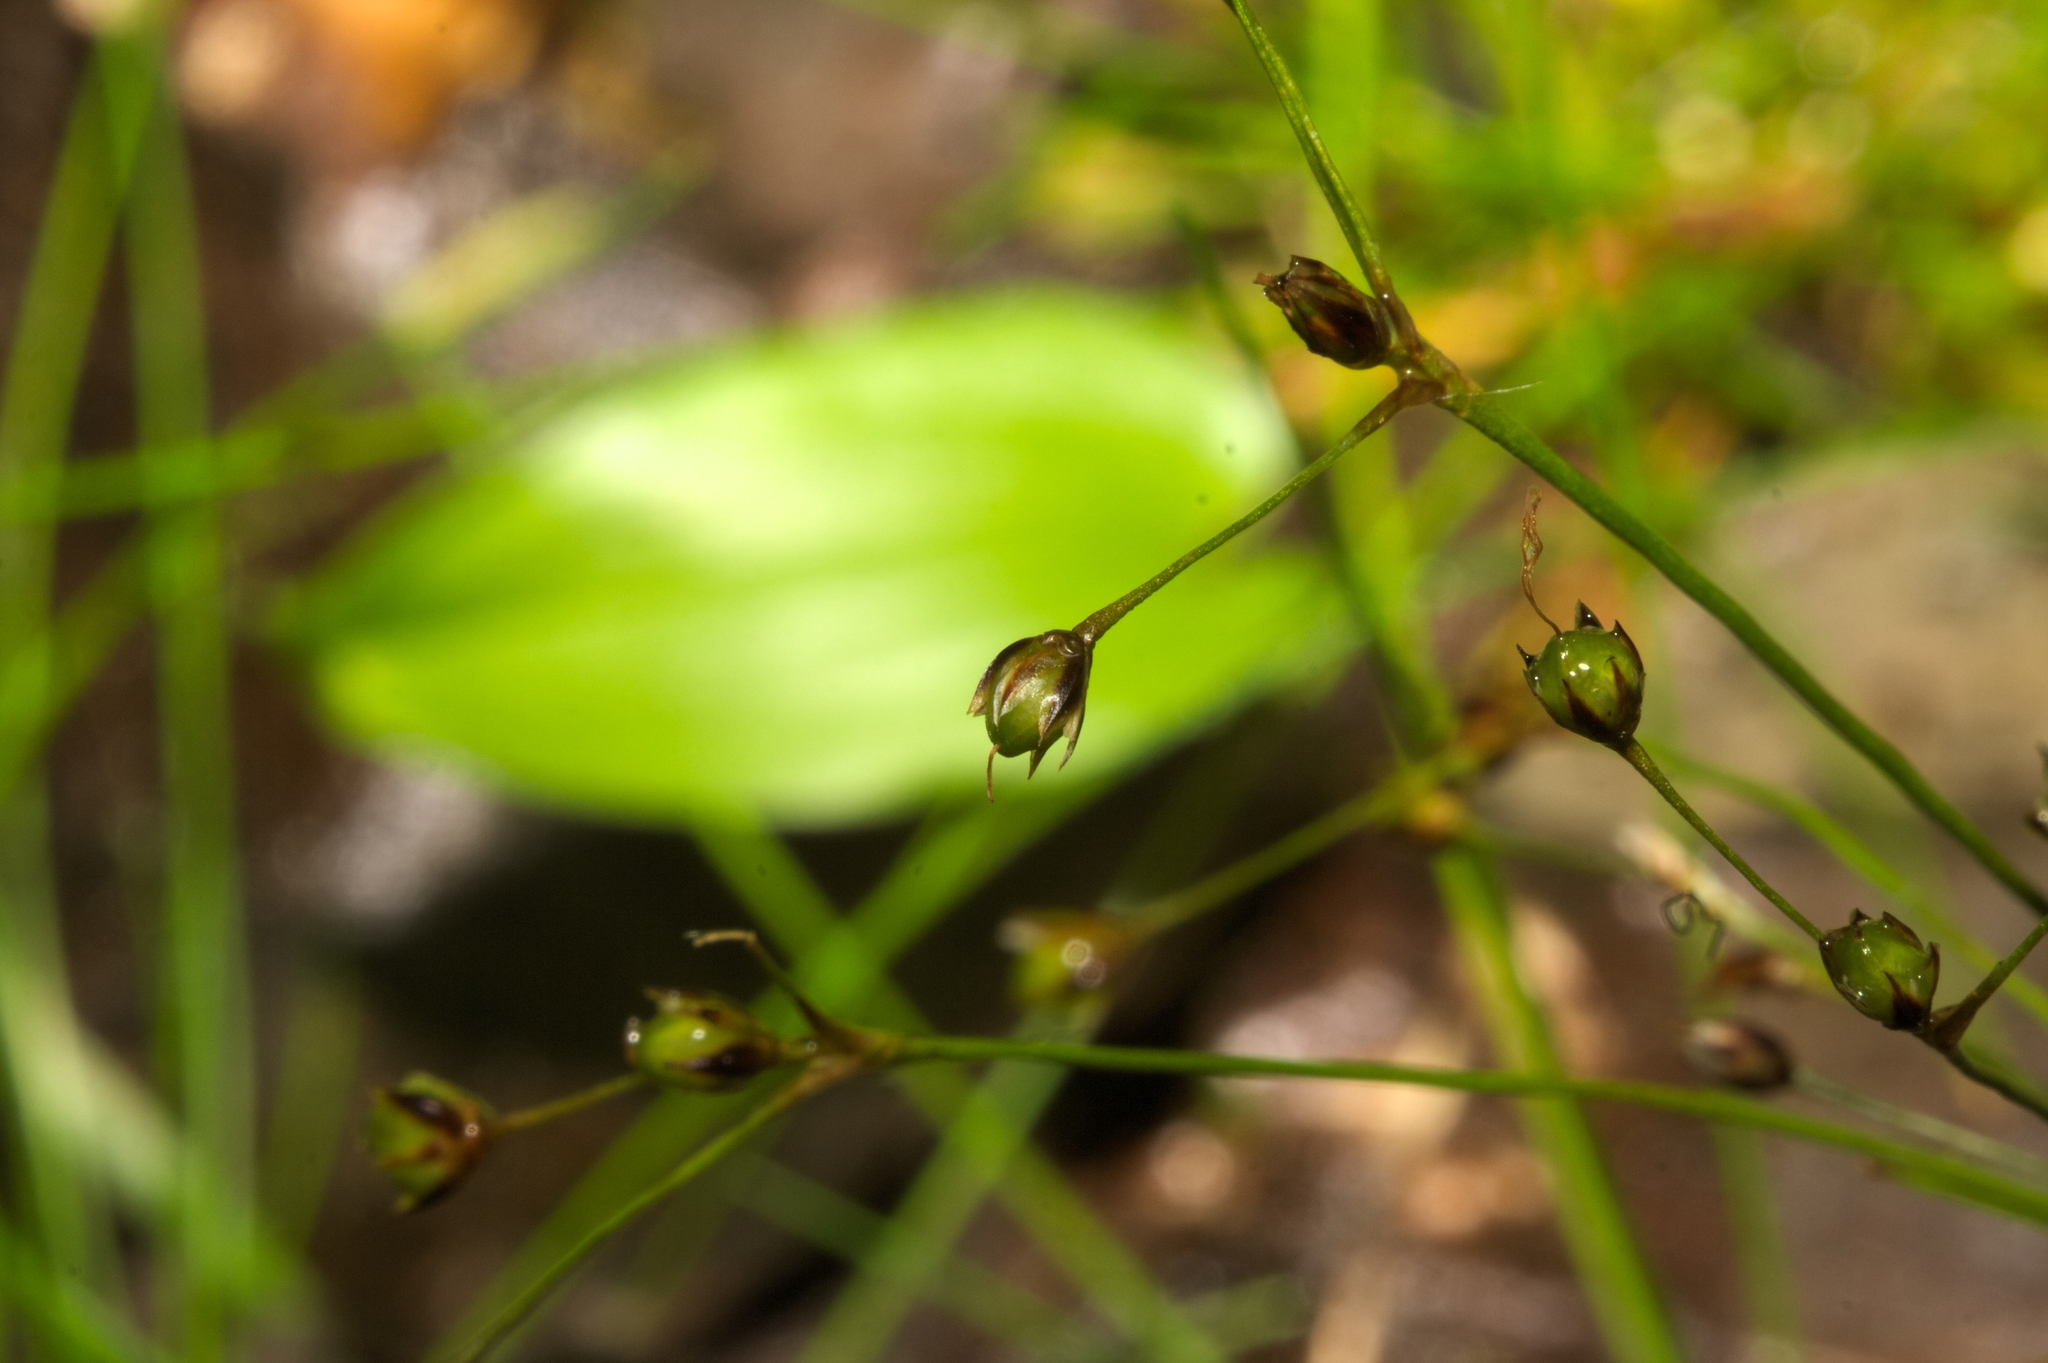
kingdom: Plantae
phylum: Tracheophyta
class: Liliopsida
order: Poales
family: Juncaceae
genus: Luzula
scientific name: Luzula pilosa
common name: Hairy wood-rush
